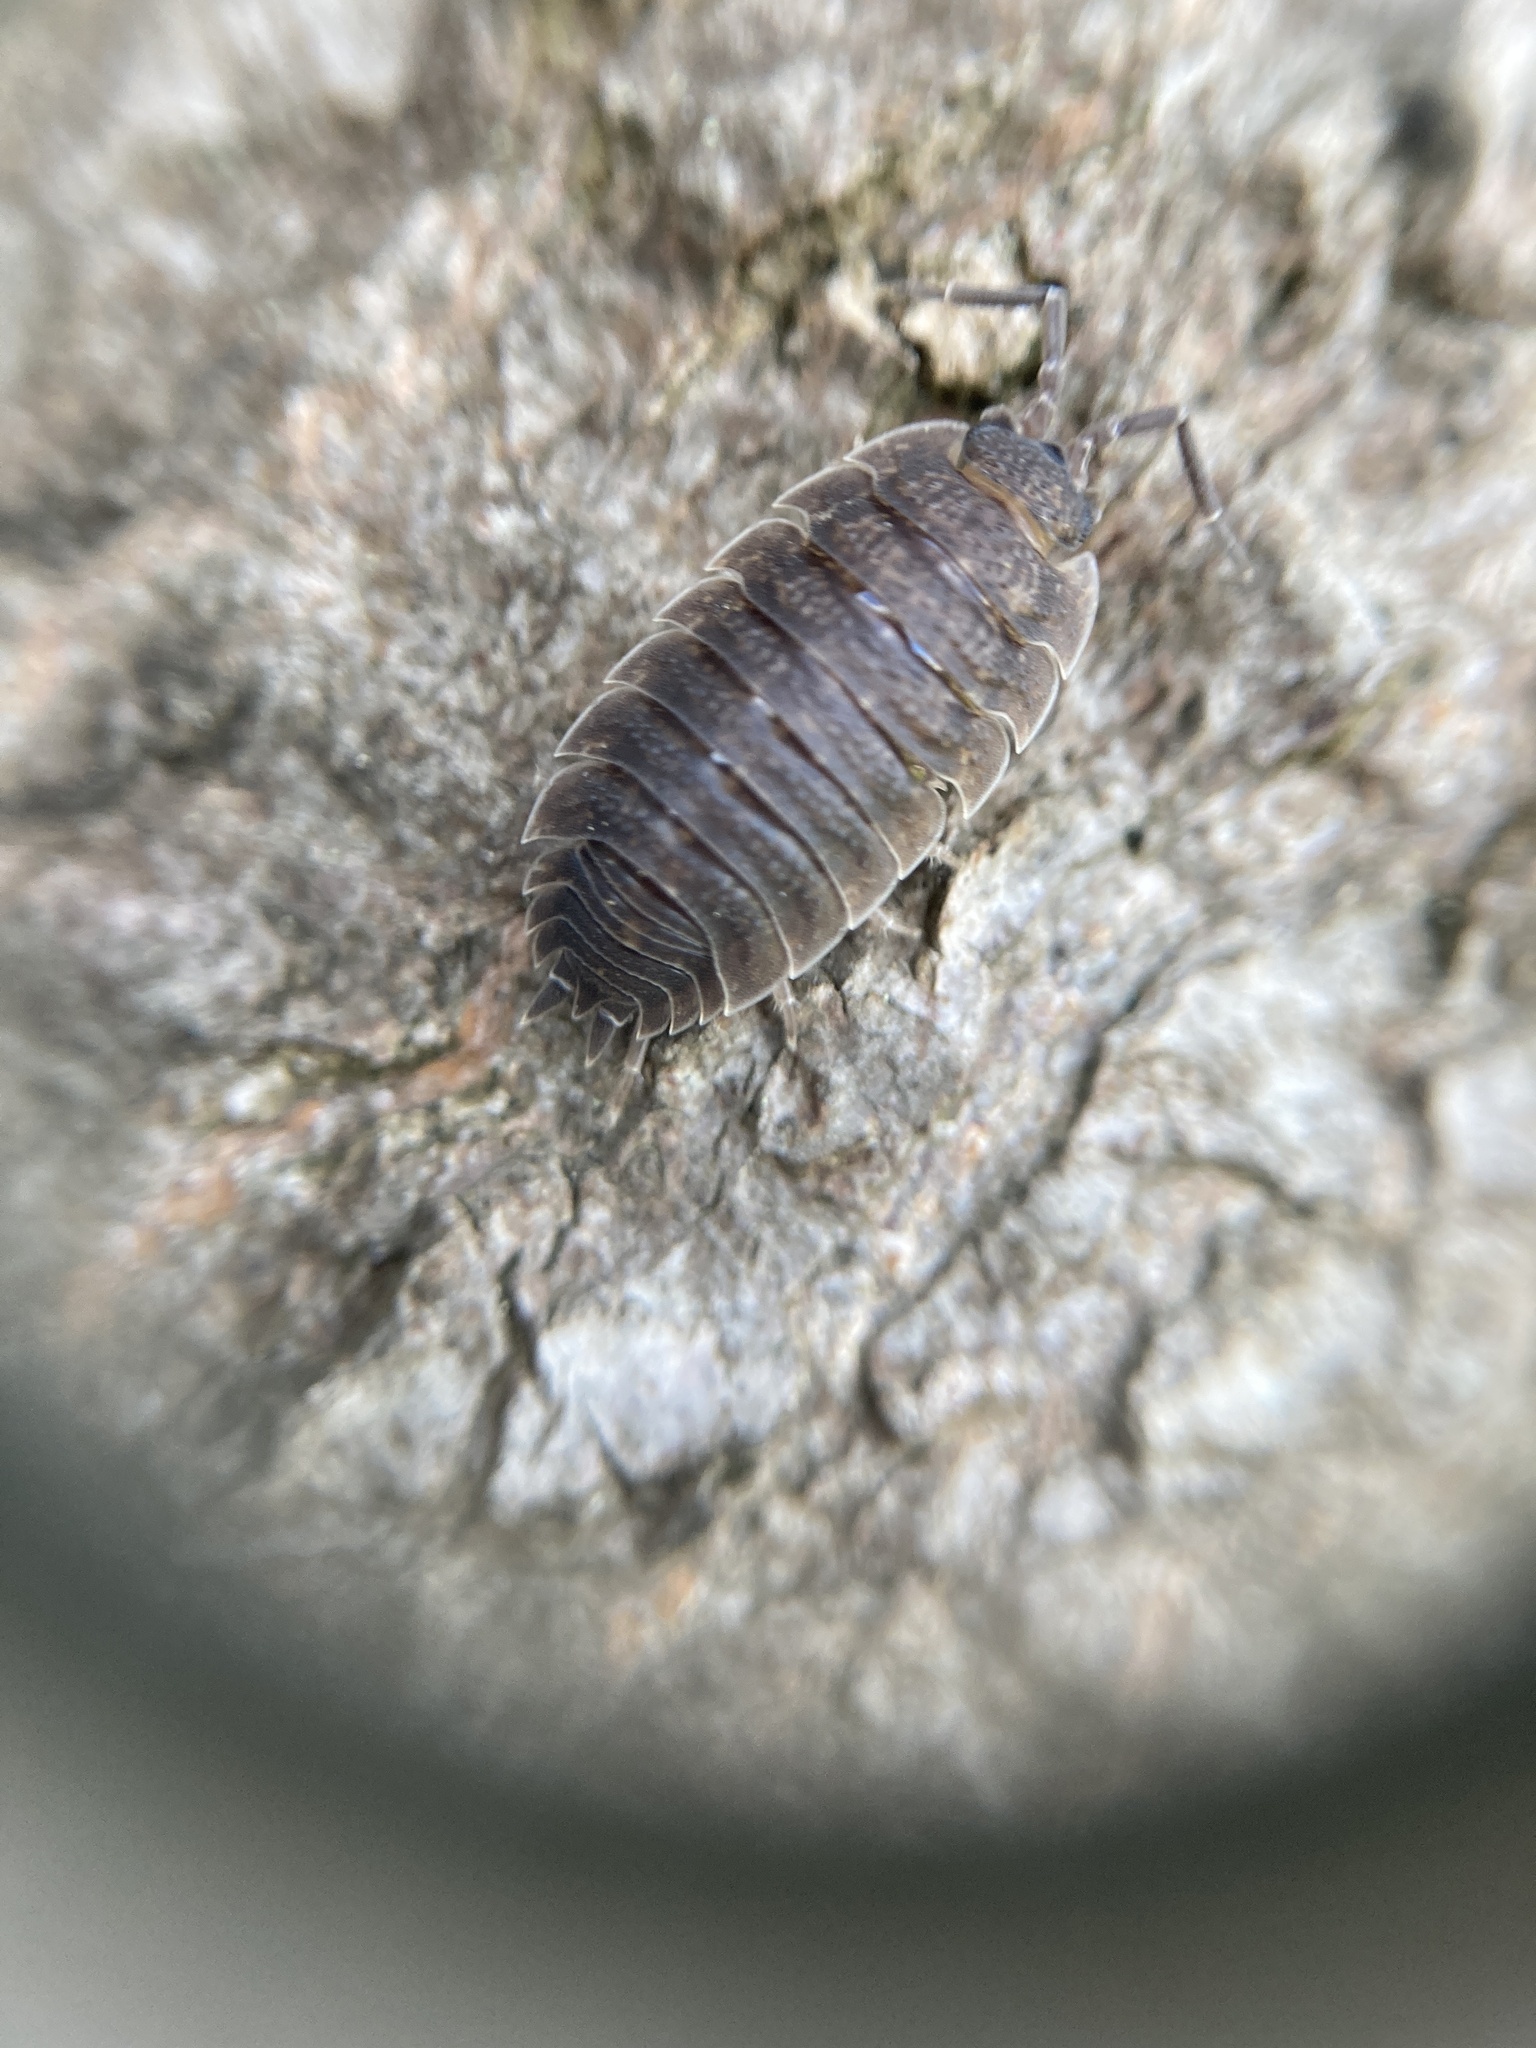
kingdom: Animalia
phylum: Arthropoda
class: Malacostraca
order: Isopoda
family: Porcellionidae
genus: Porcellio
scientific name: Porcellio scaber
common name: Common rough woodlouse
